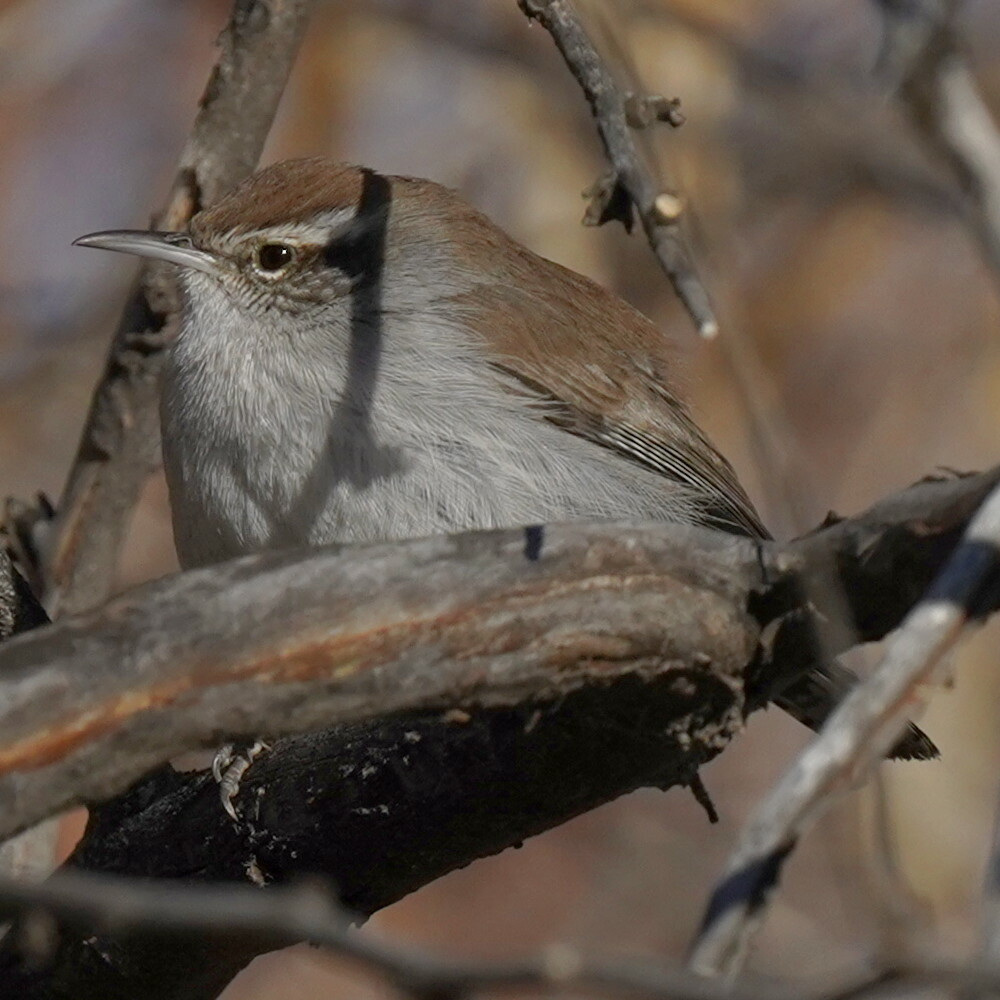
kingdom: Animalia
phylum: Chordata
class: Aves
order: Passeriformes
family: Troglodytidae
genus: Thryomanes
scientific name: Thryomanes bewickii
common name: Bewick's wren
